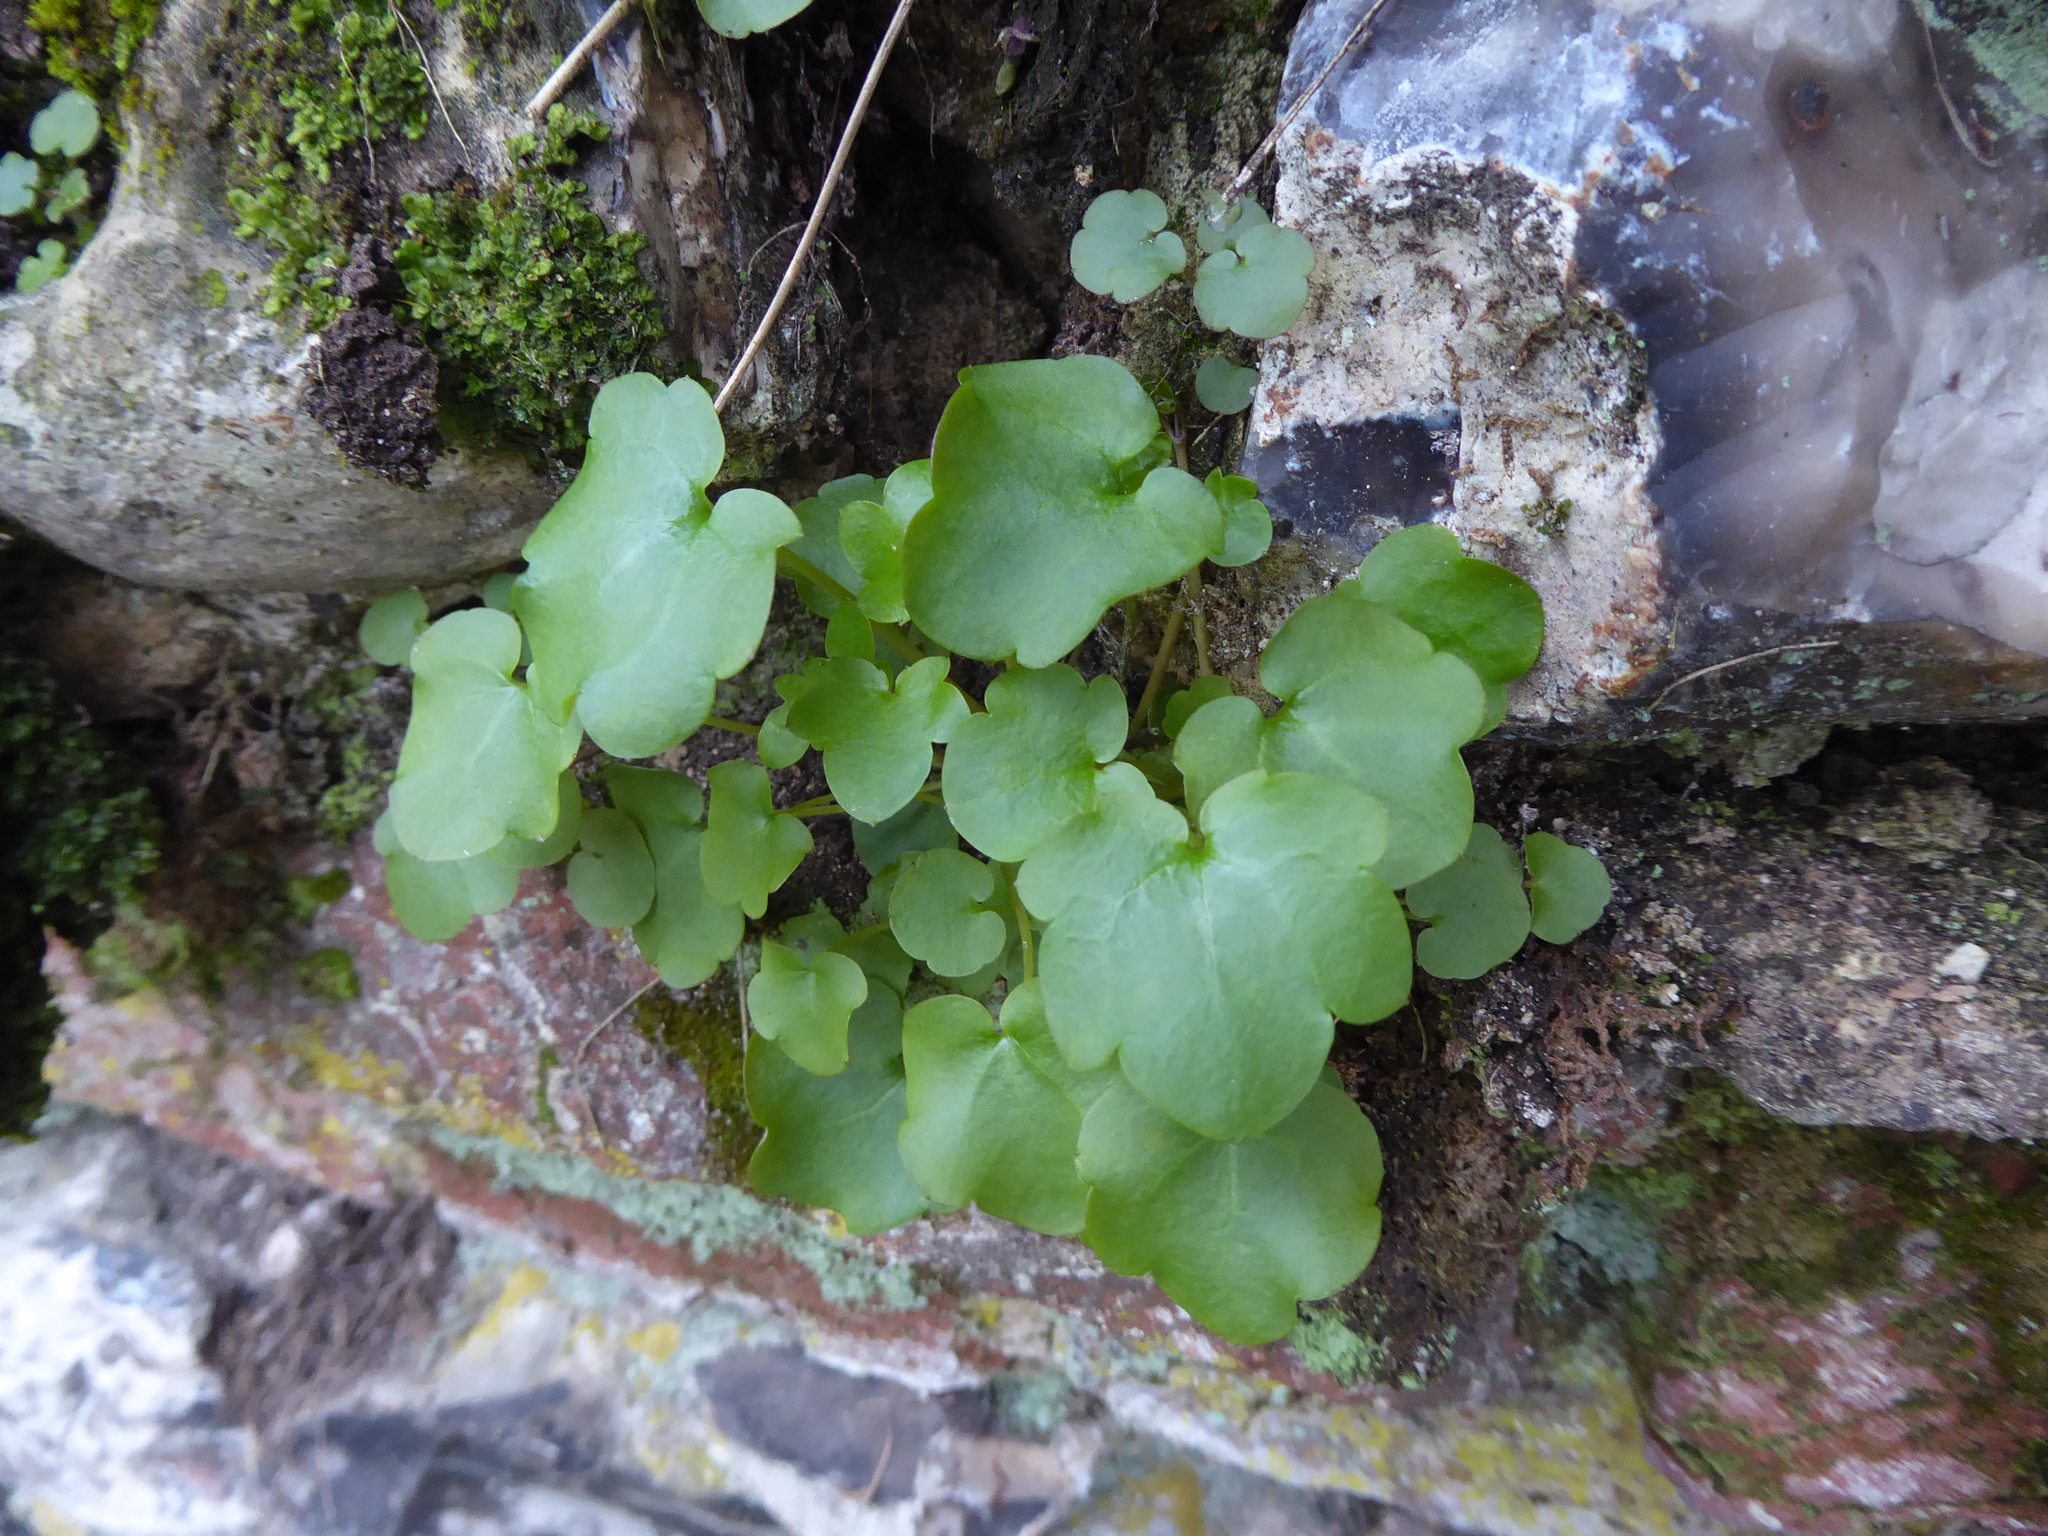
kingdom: Plantae
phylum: Tracheophyta
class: Magnoliopsida
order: Lamiales
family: Plantaginaceae
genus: Cymbalaria
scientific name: Cymbalaria muralis
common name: Ivy-leaved toadflax
